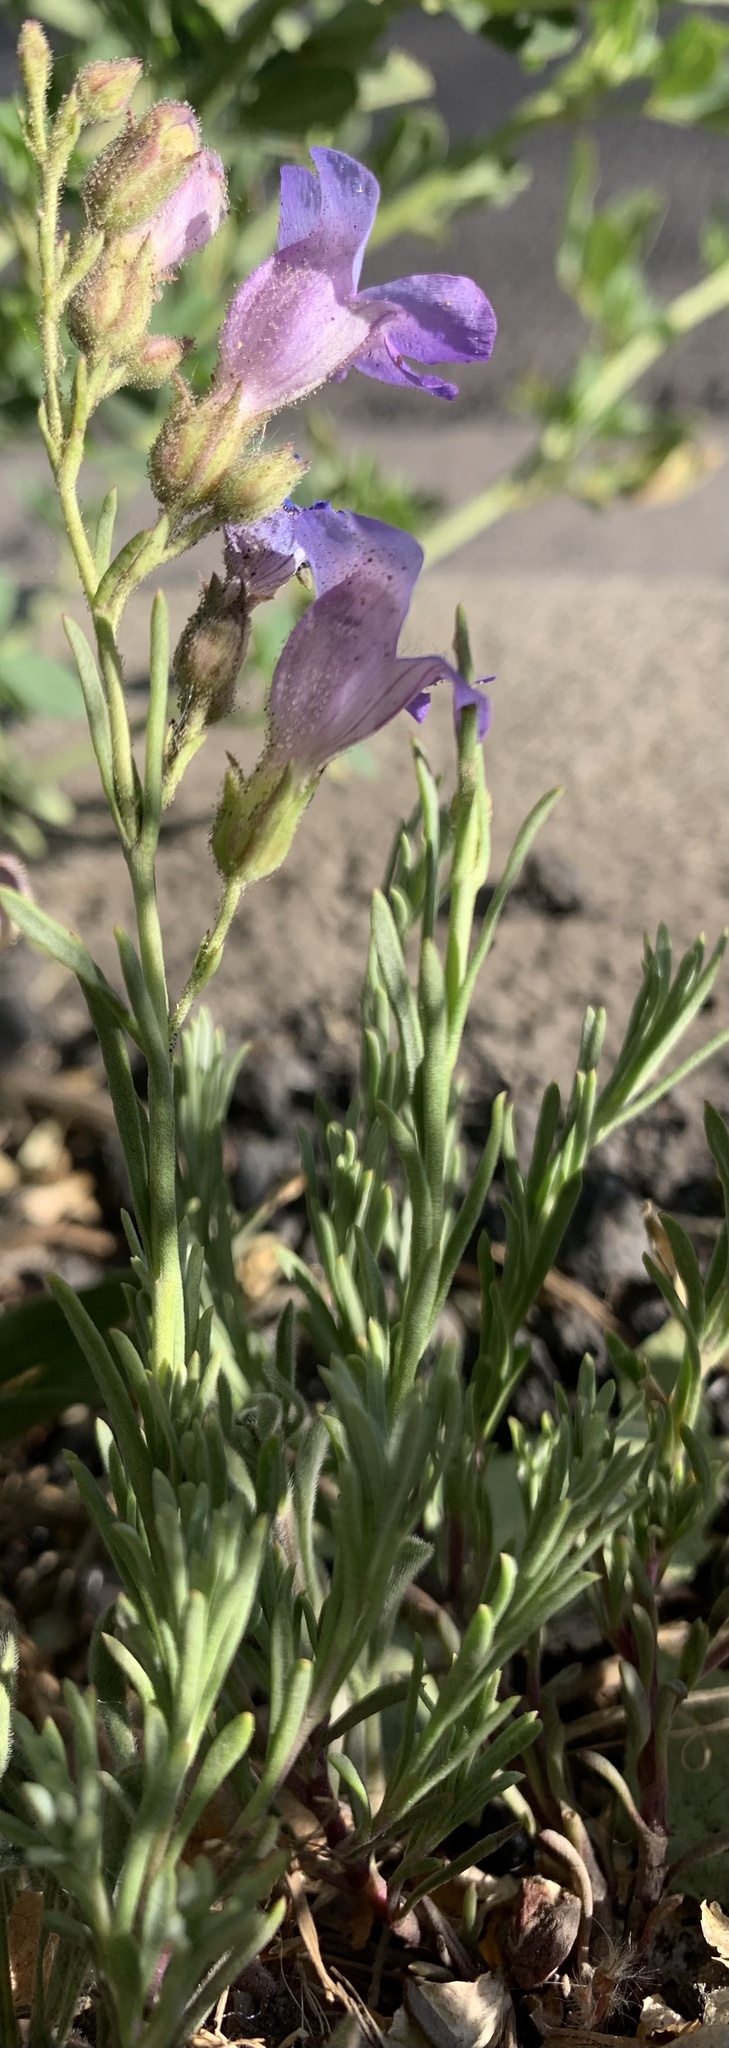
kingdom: Plantae
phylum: Tracheophyta
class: Magnoliopsida
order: Lamiales
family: Plantaginaceae
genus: Penstemon
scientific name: Penstemon linarioides
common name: Siler's penstemon
